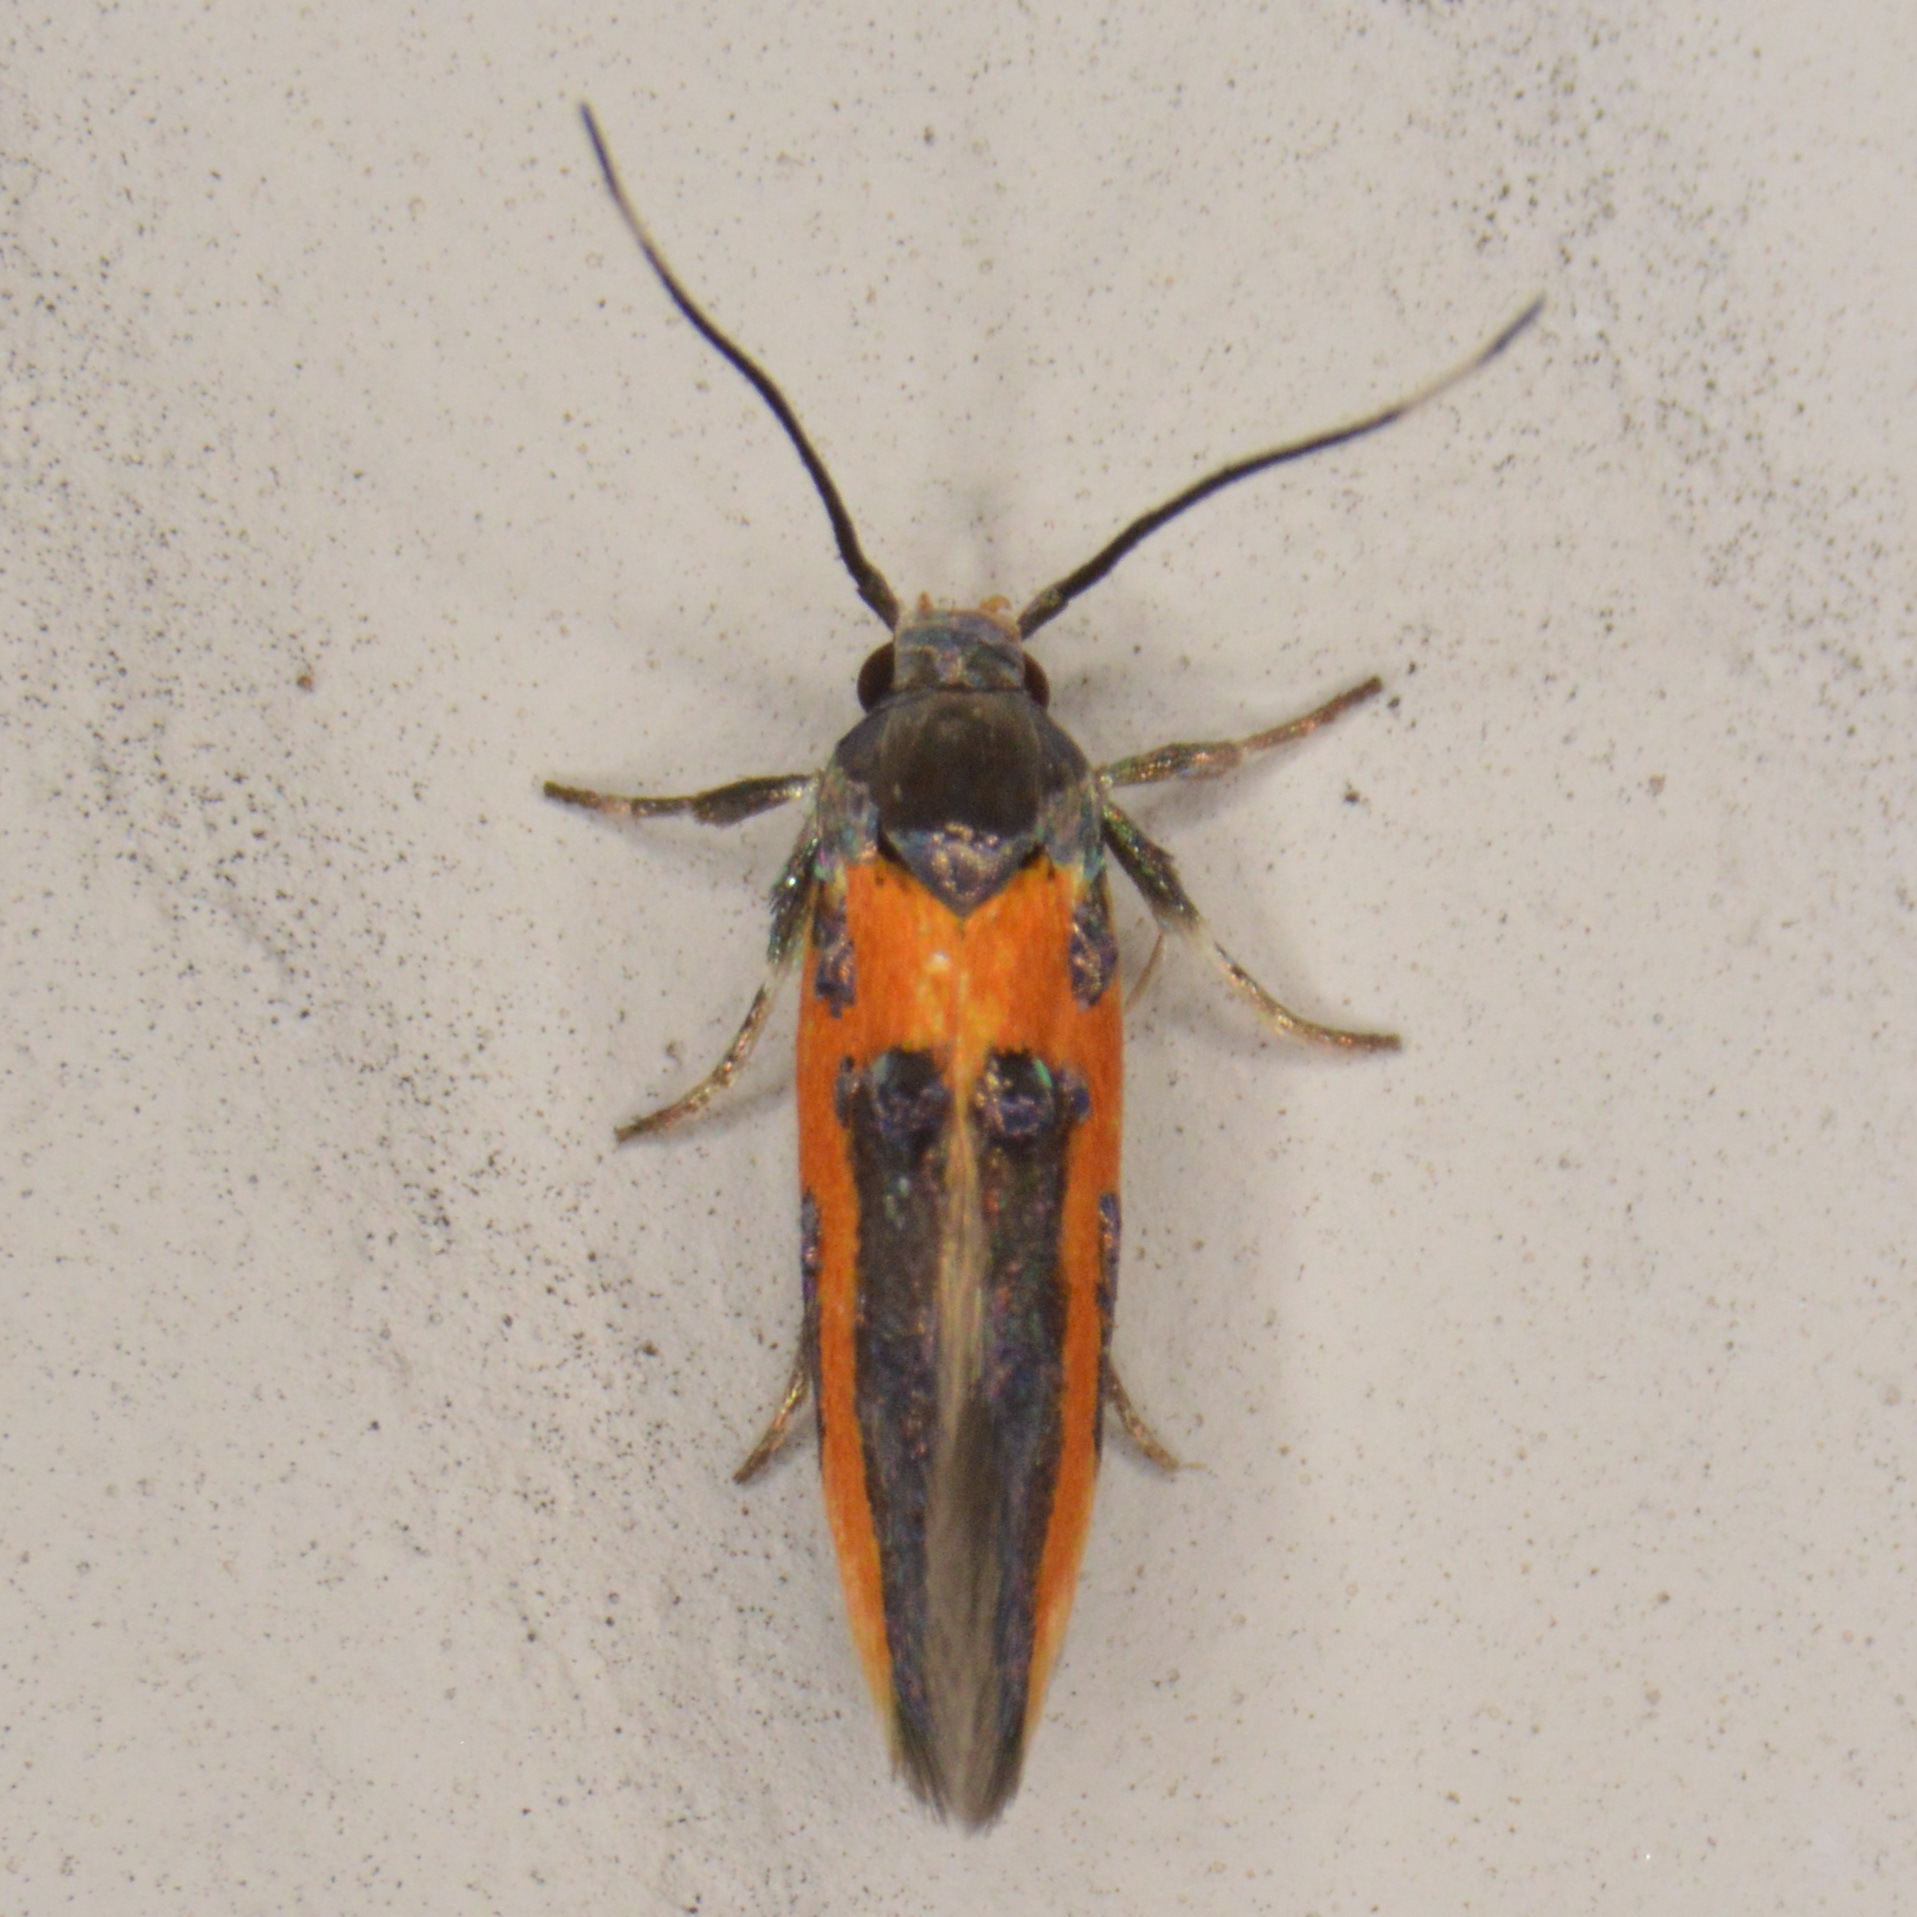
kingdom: Animalia
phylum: Arthropoda
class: Insecta
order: Lepidoptera
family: Cosmopterigidae
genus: Euclemensia
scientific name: Euclemensia bassettella
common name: Kermes scale moth
